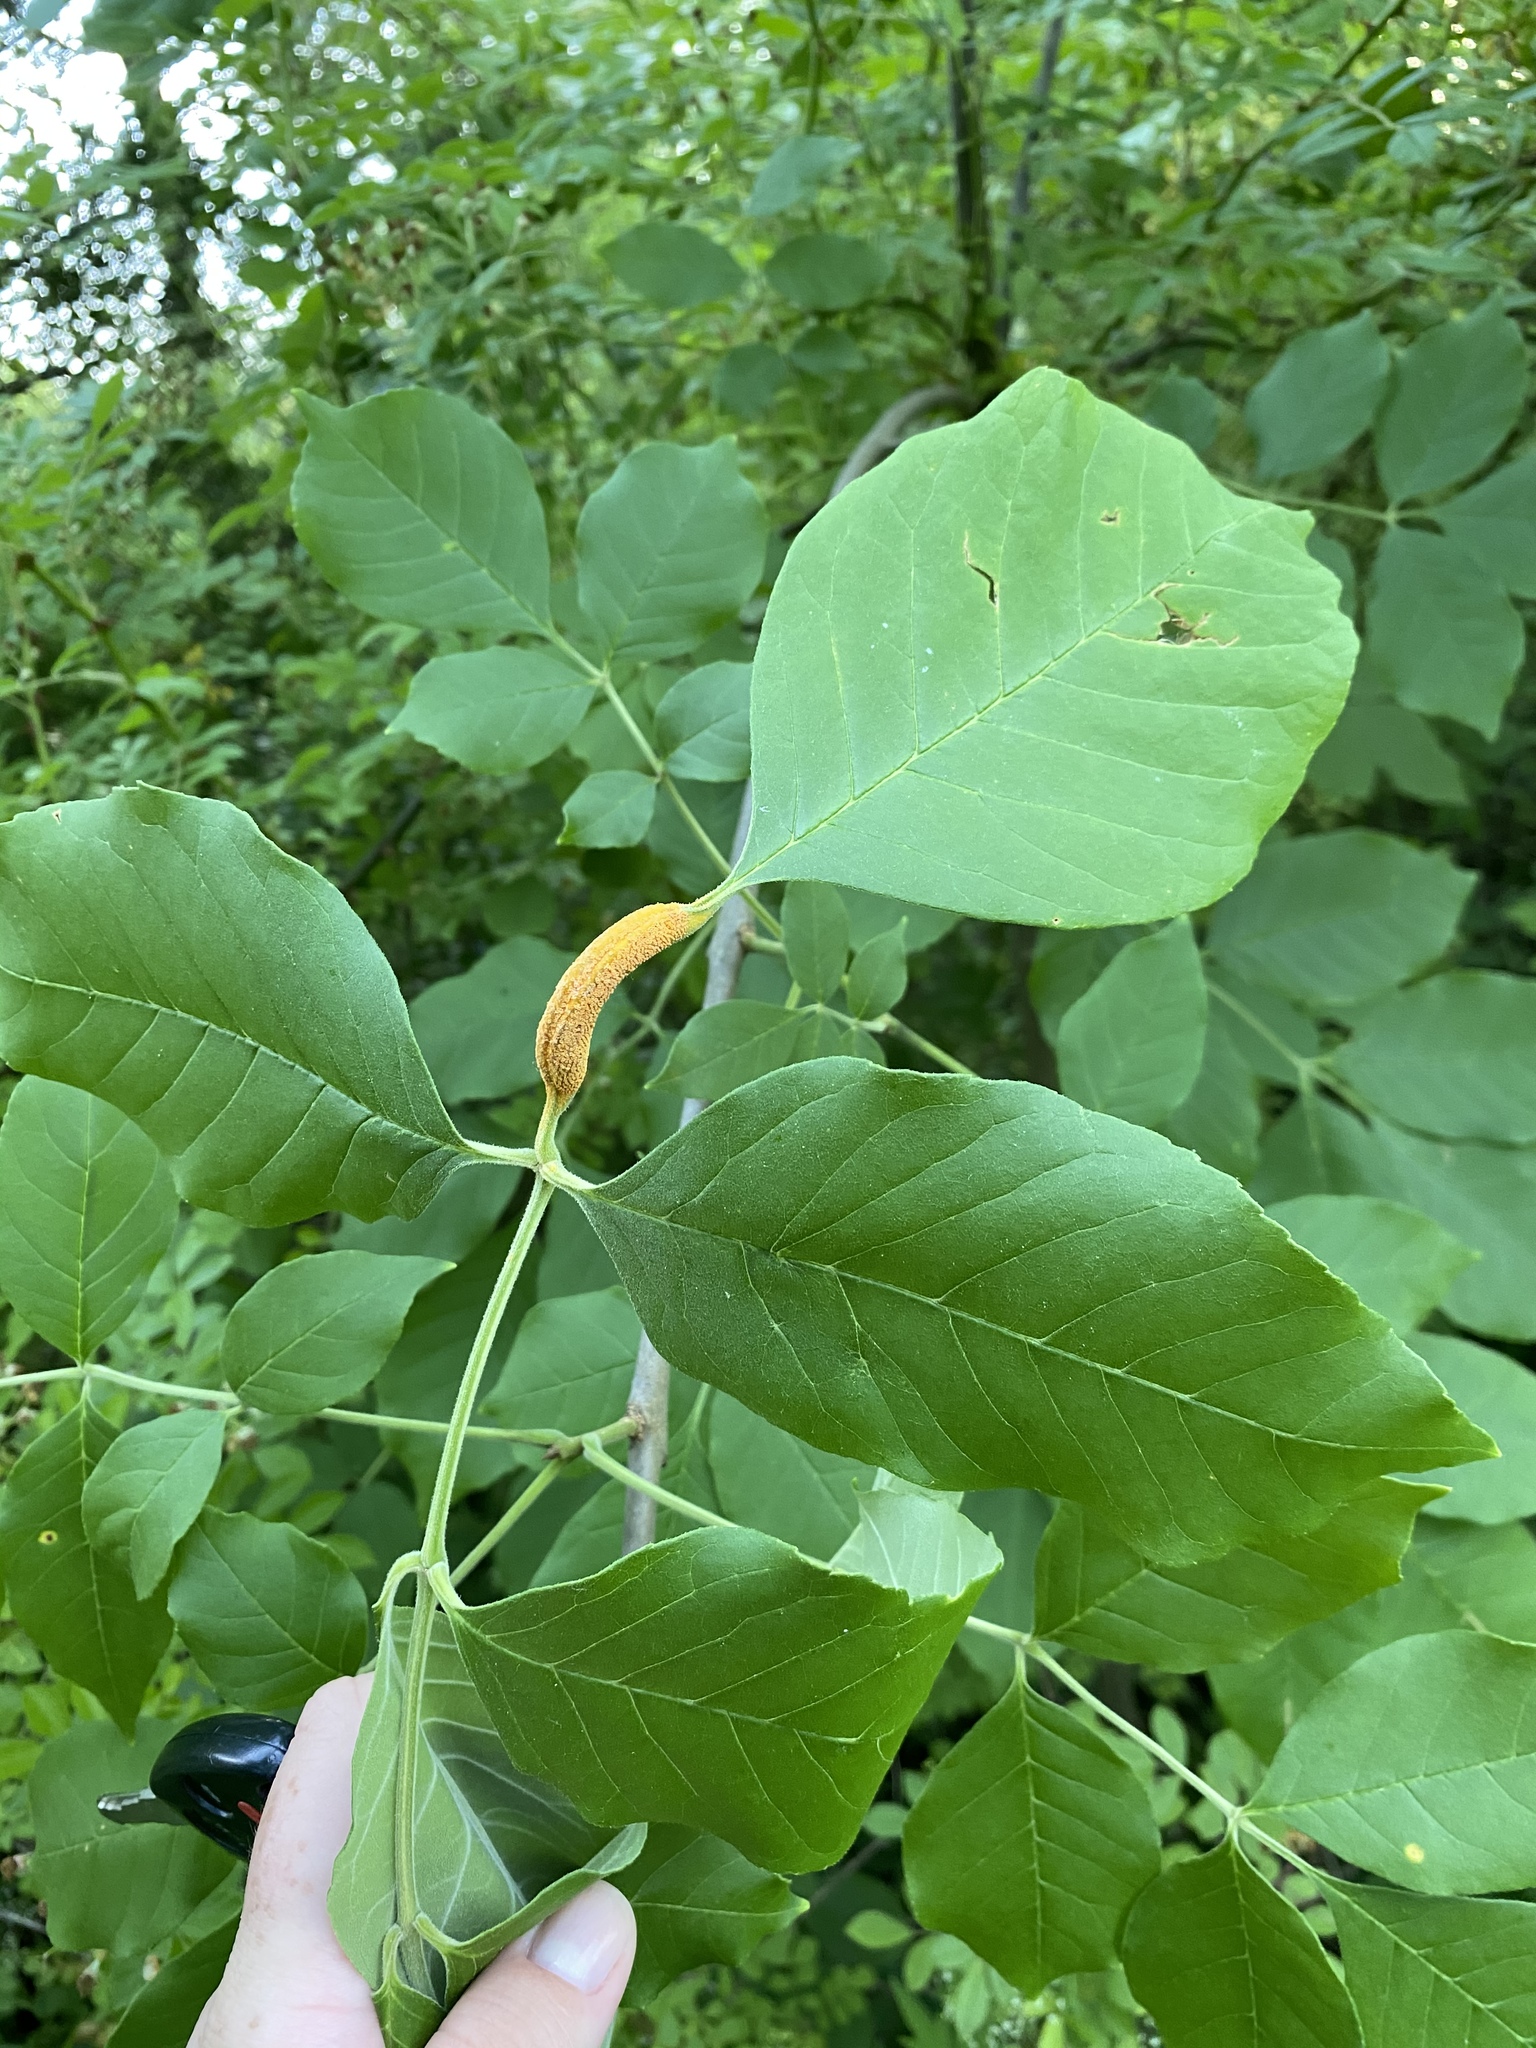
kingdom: Fungi
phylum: Basidiomycota
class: Pucciniomycetes
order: Pucciniales
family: Pucciniaceae
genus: Puccinia
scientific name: Puccinia sparganioidis
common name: Ash rust
